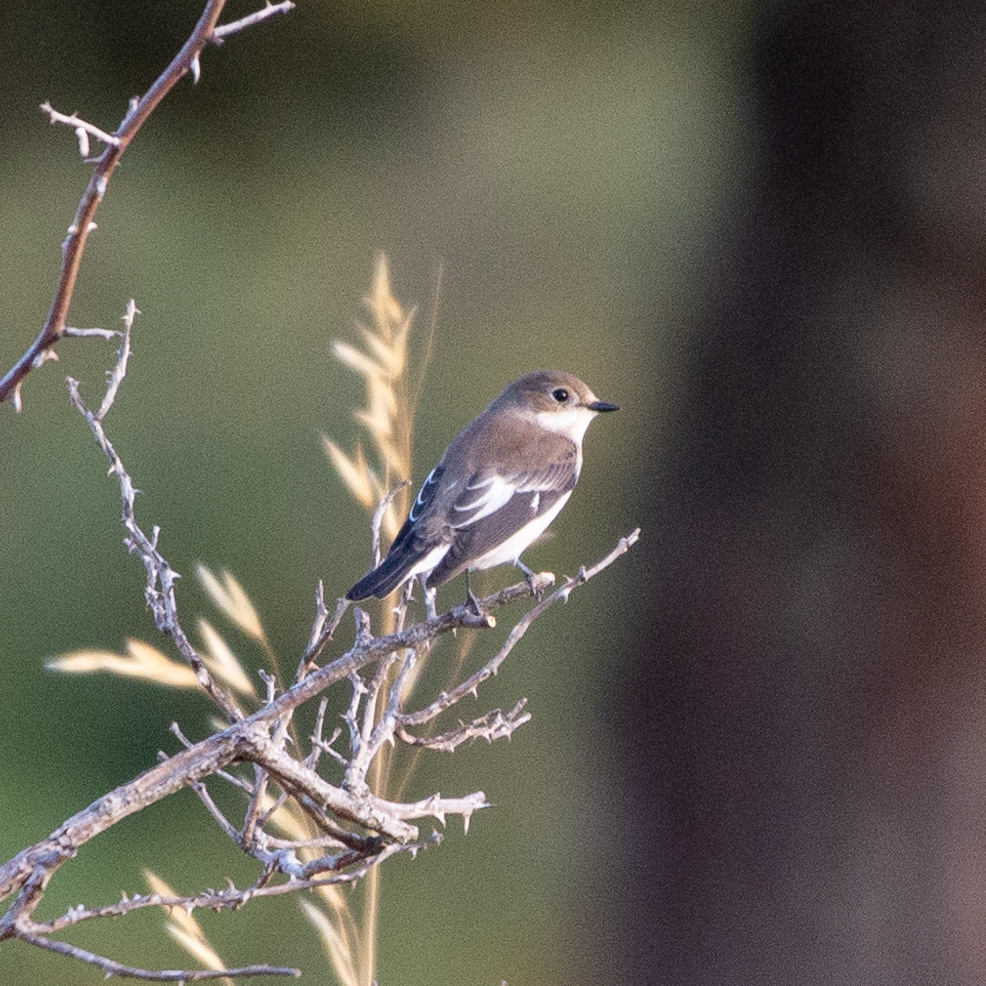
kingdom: Animalia
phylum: Chordata
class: Aves
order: Passeriformes
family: Muscicapidae
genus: Ficedula
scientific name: Ficedula hypoleuca
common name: European pied flycatcher
